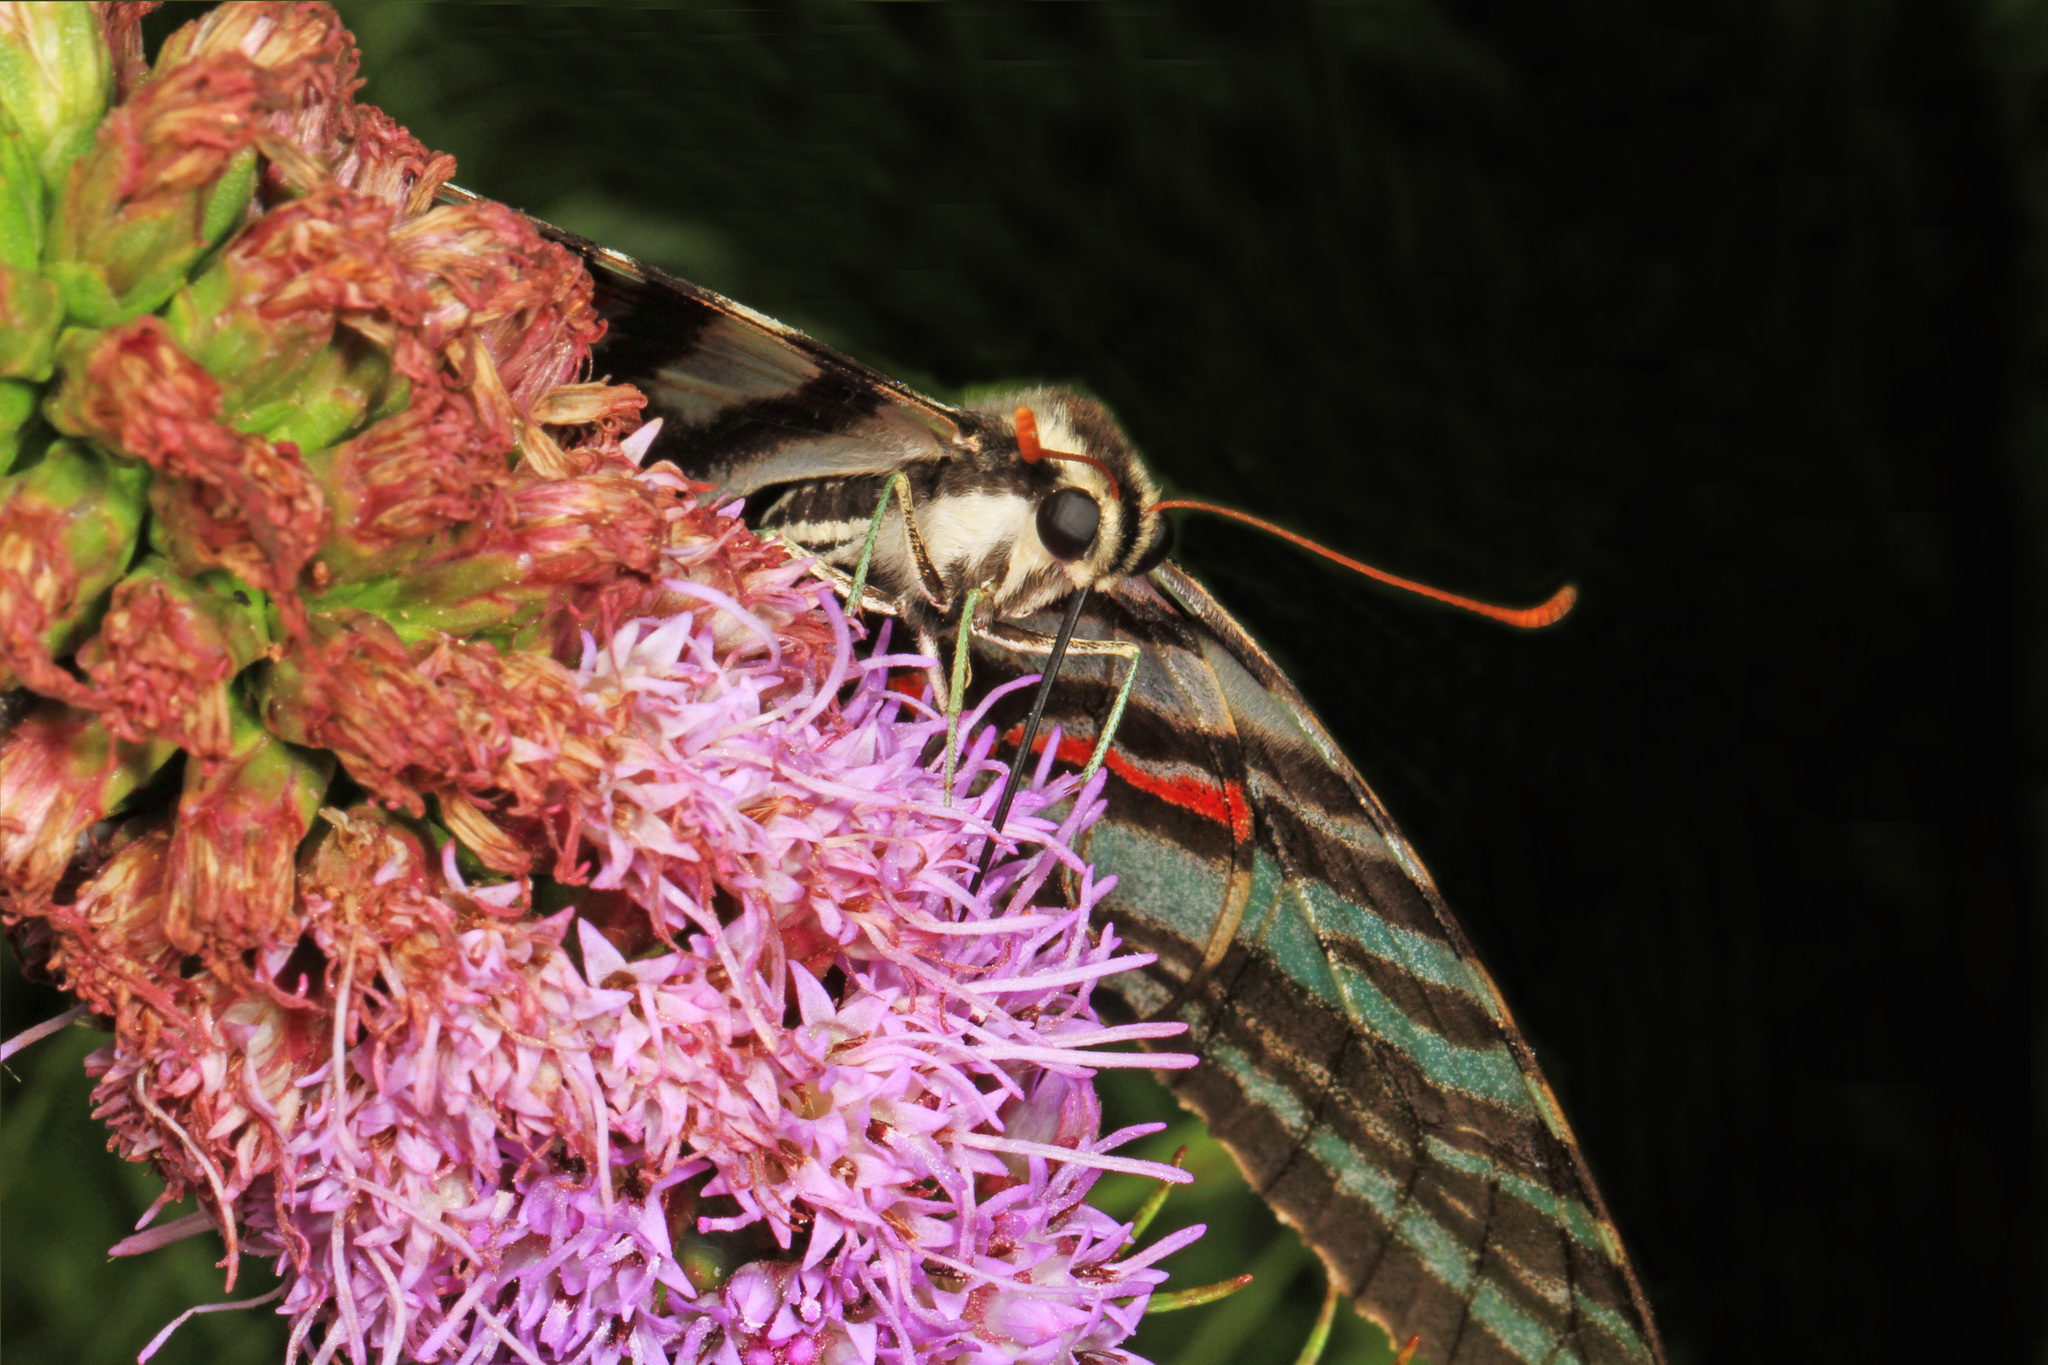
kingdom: Animalia
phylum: Arthropoda
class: Insecta
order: Lepidoptera
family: Papilionidae
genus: Protographium
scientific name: Protographium marcellus
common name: Zebra swallowtail
